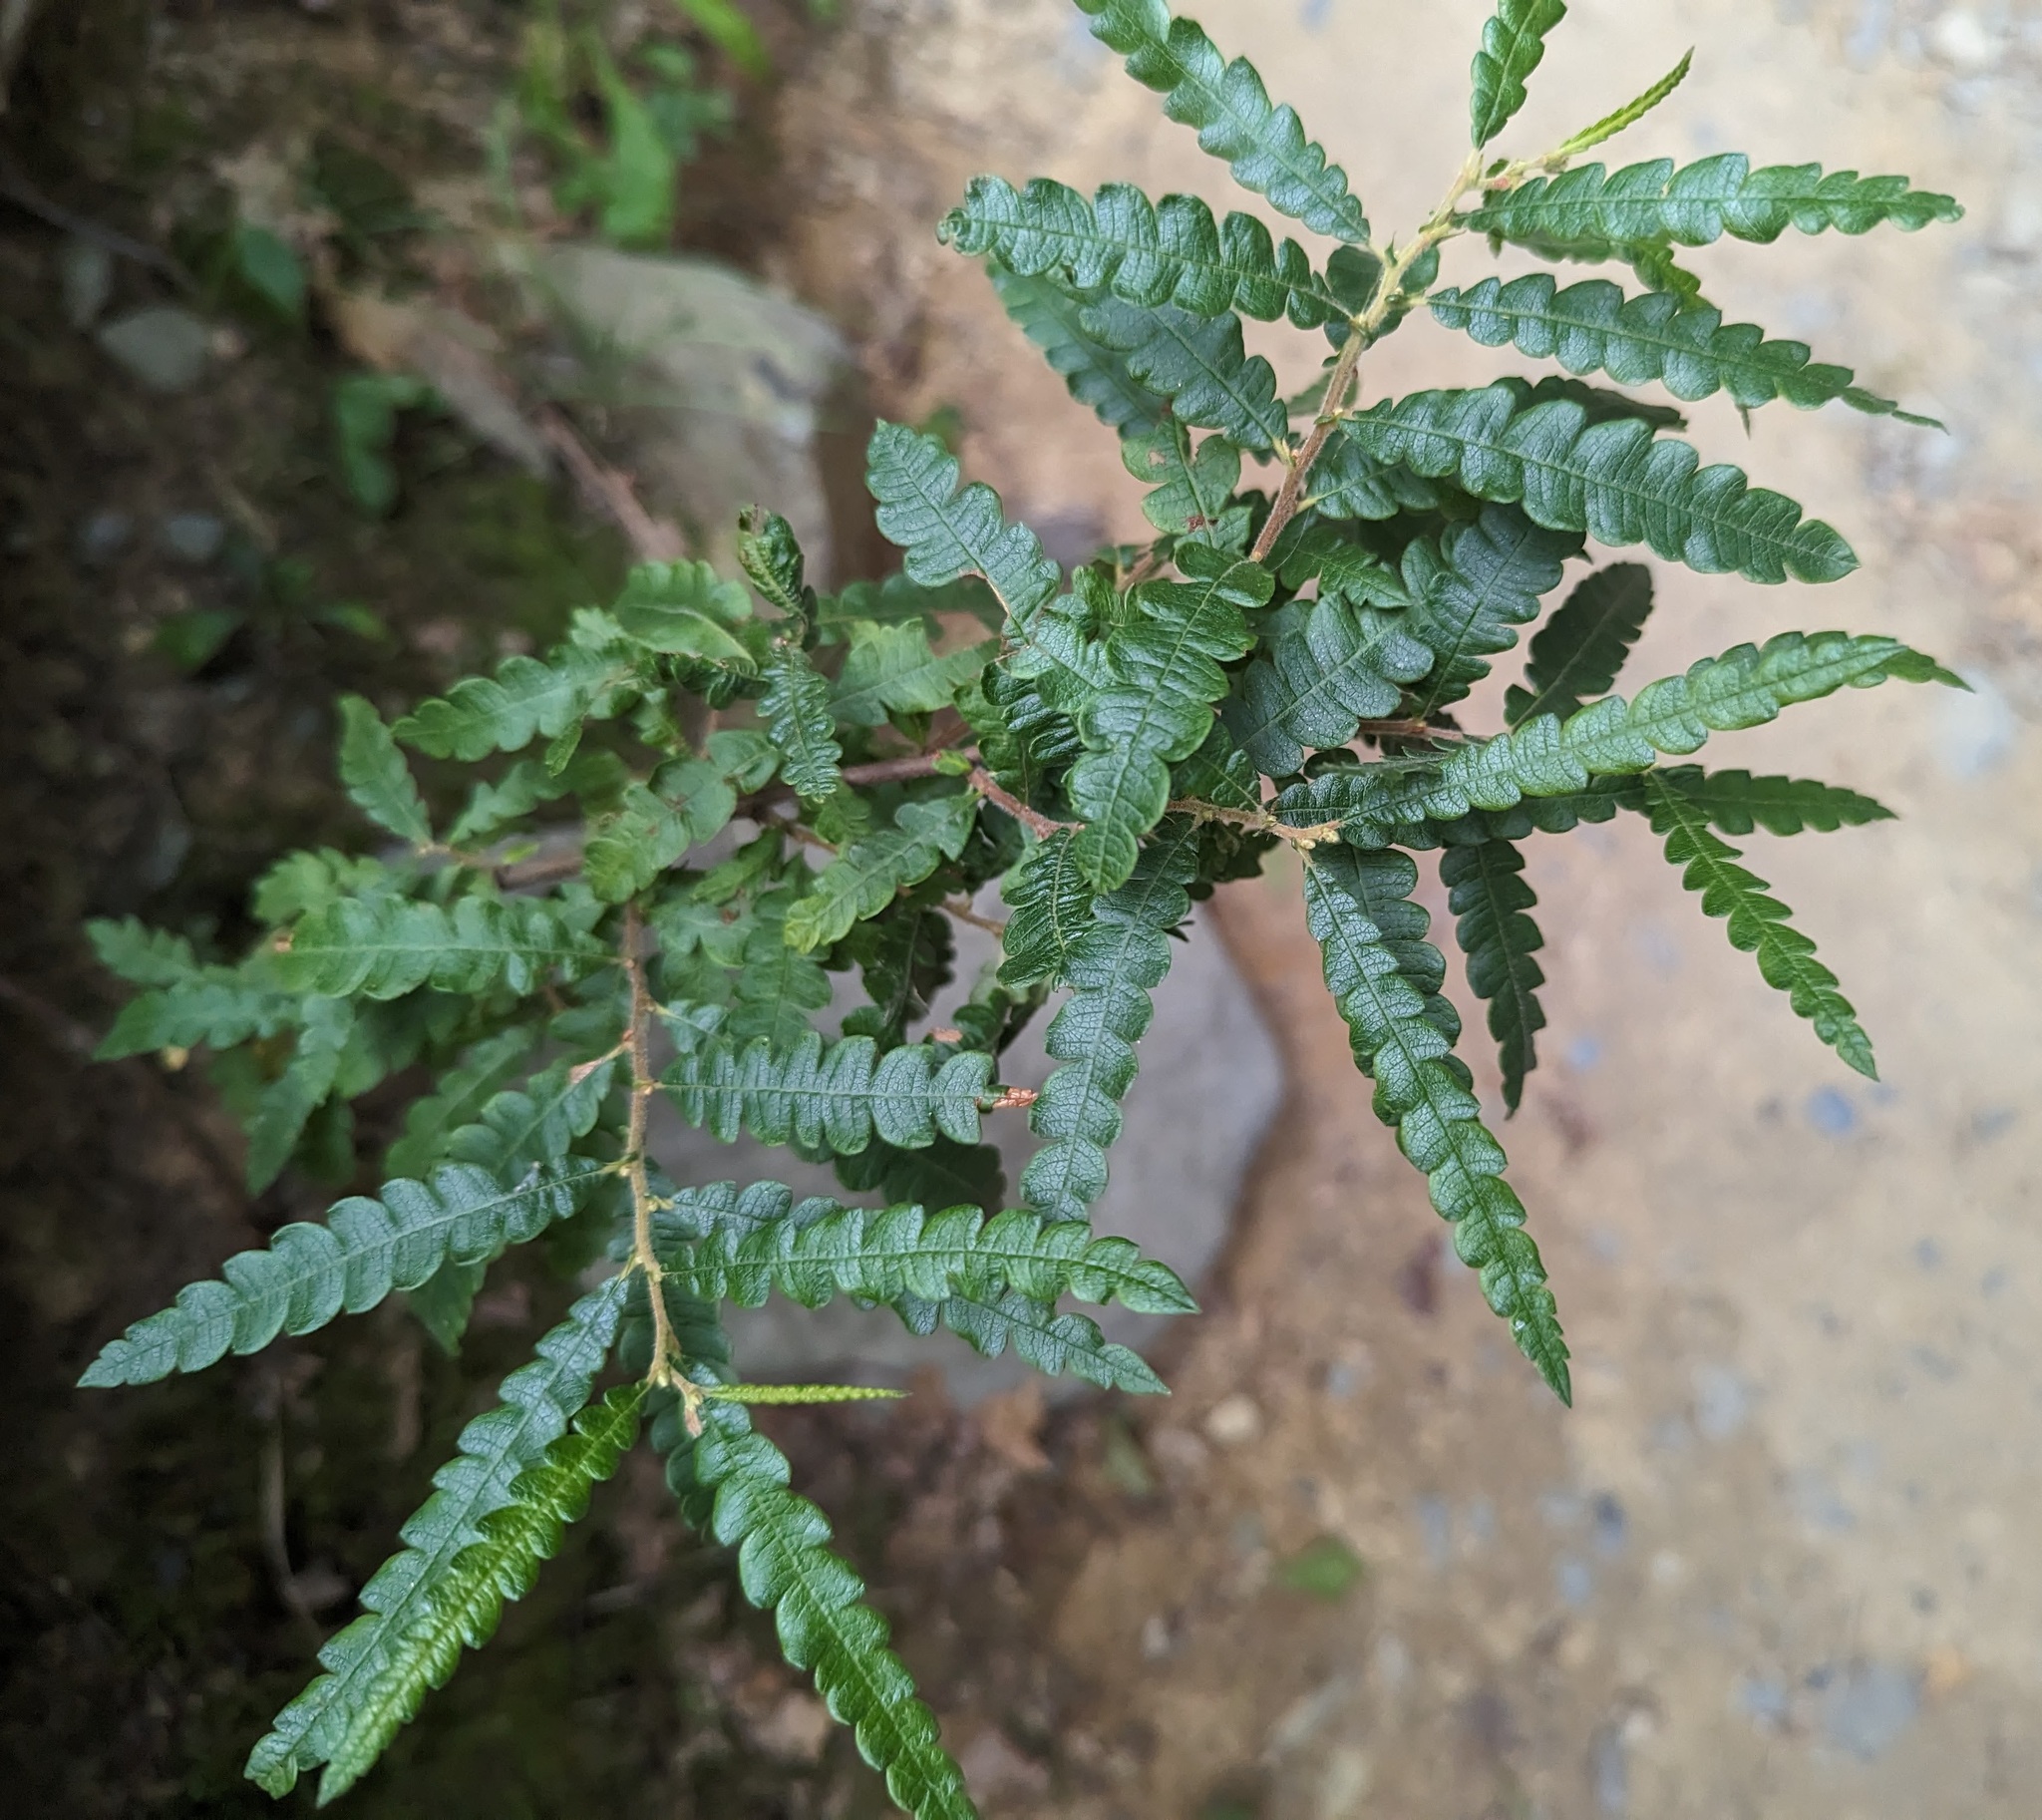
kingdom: Plantae
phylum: Tracheophyta
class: Magnoliopsida
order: Fagales
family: Myricaceae
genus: Comptonia
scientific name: Comptonia peregrina
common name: Sweet-fern
